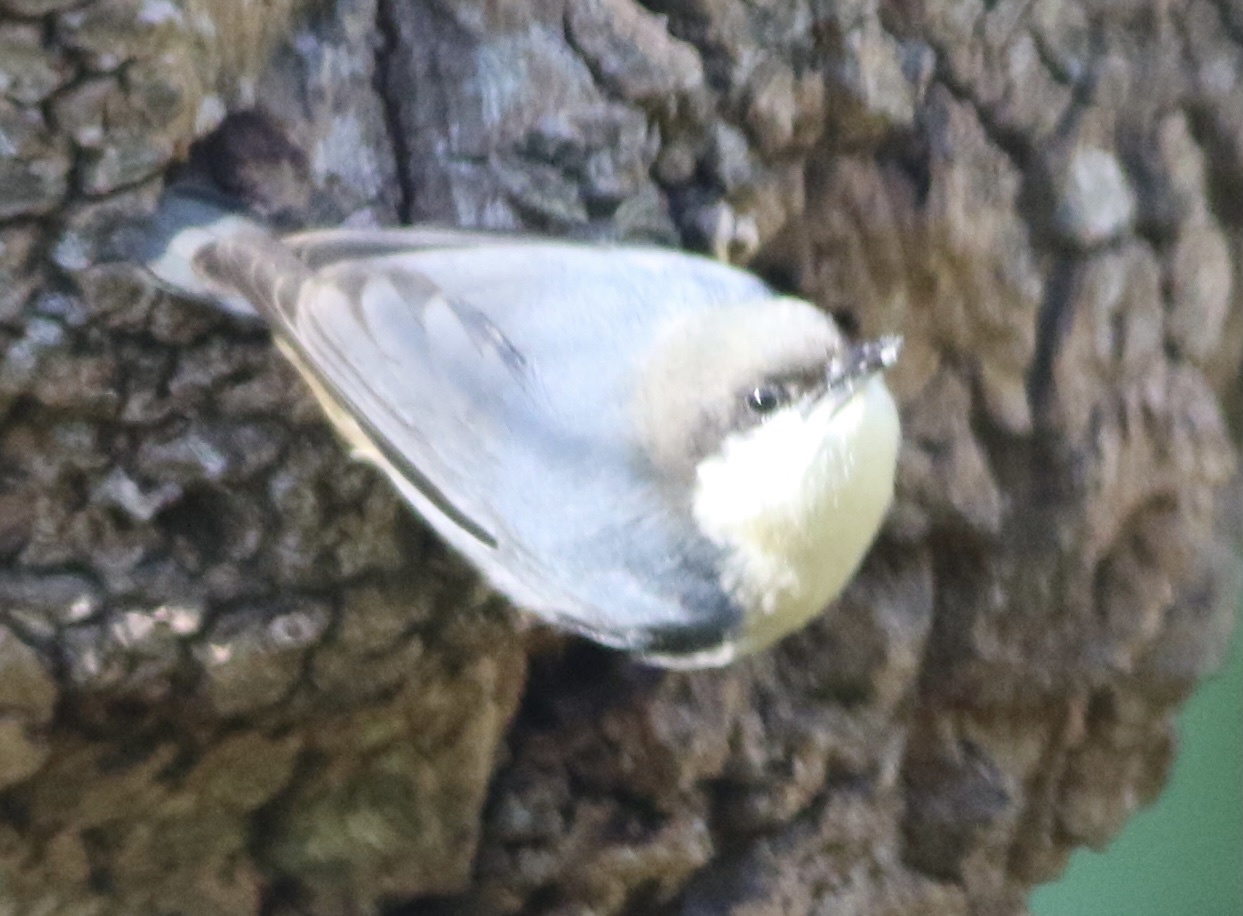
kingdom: Animalia
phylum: Chordata
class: Aves
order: Passeriformes
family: Sittidae
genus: Sitta
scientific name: Sitta pygmaea
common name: Pygmy nuthatch
